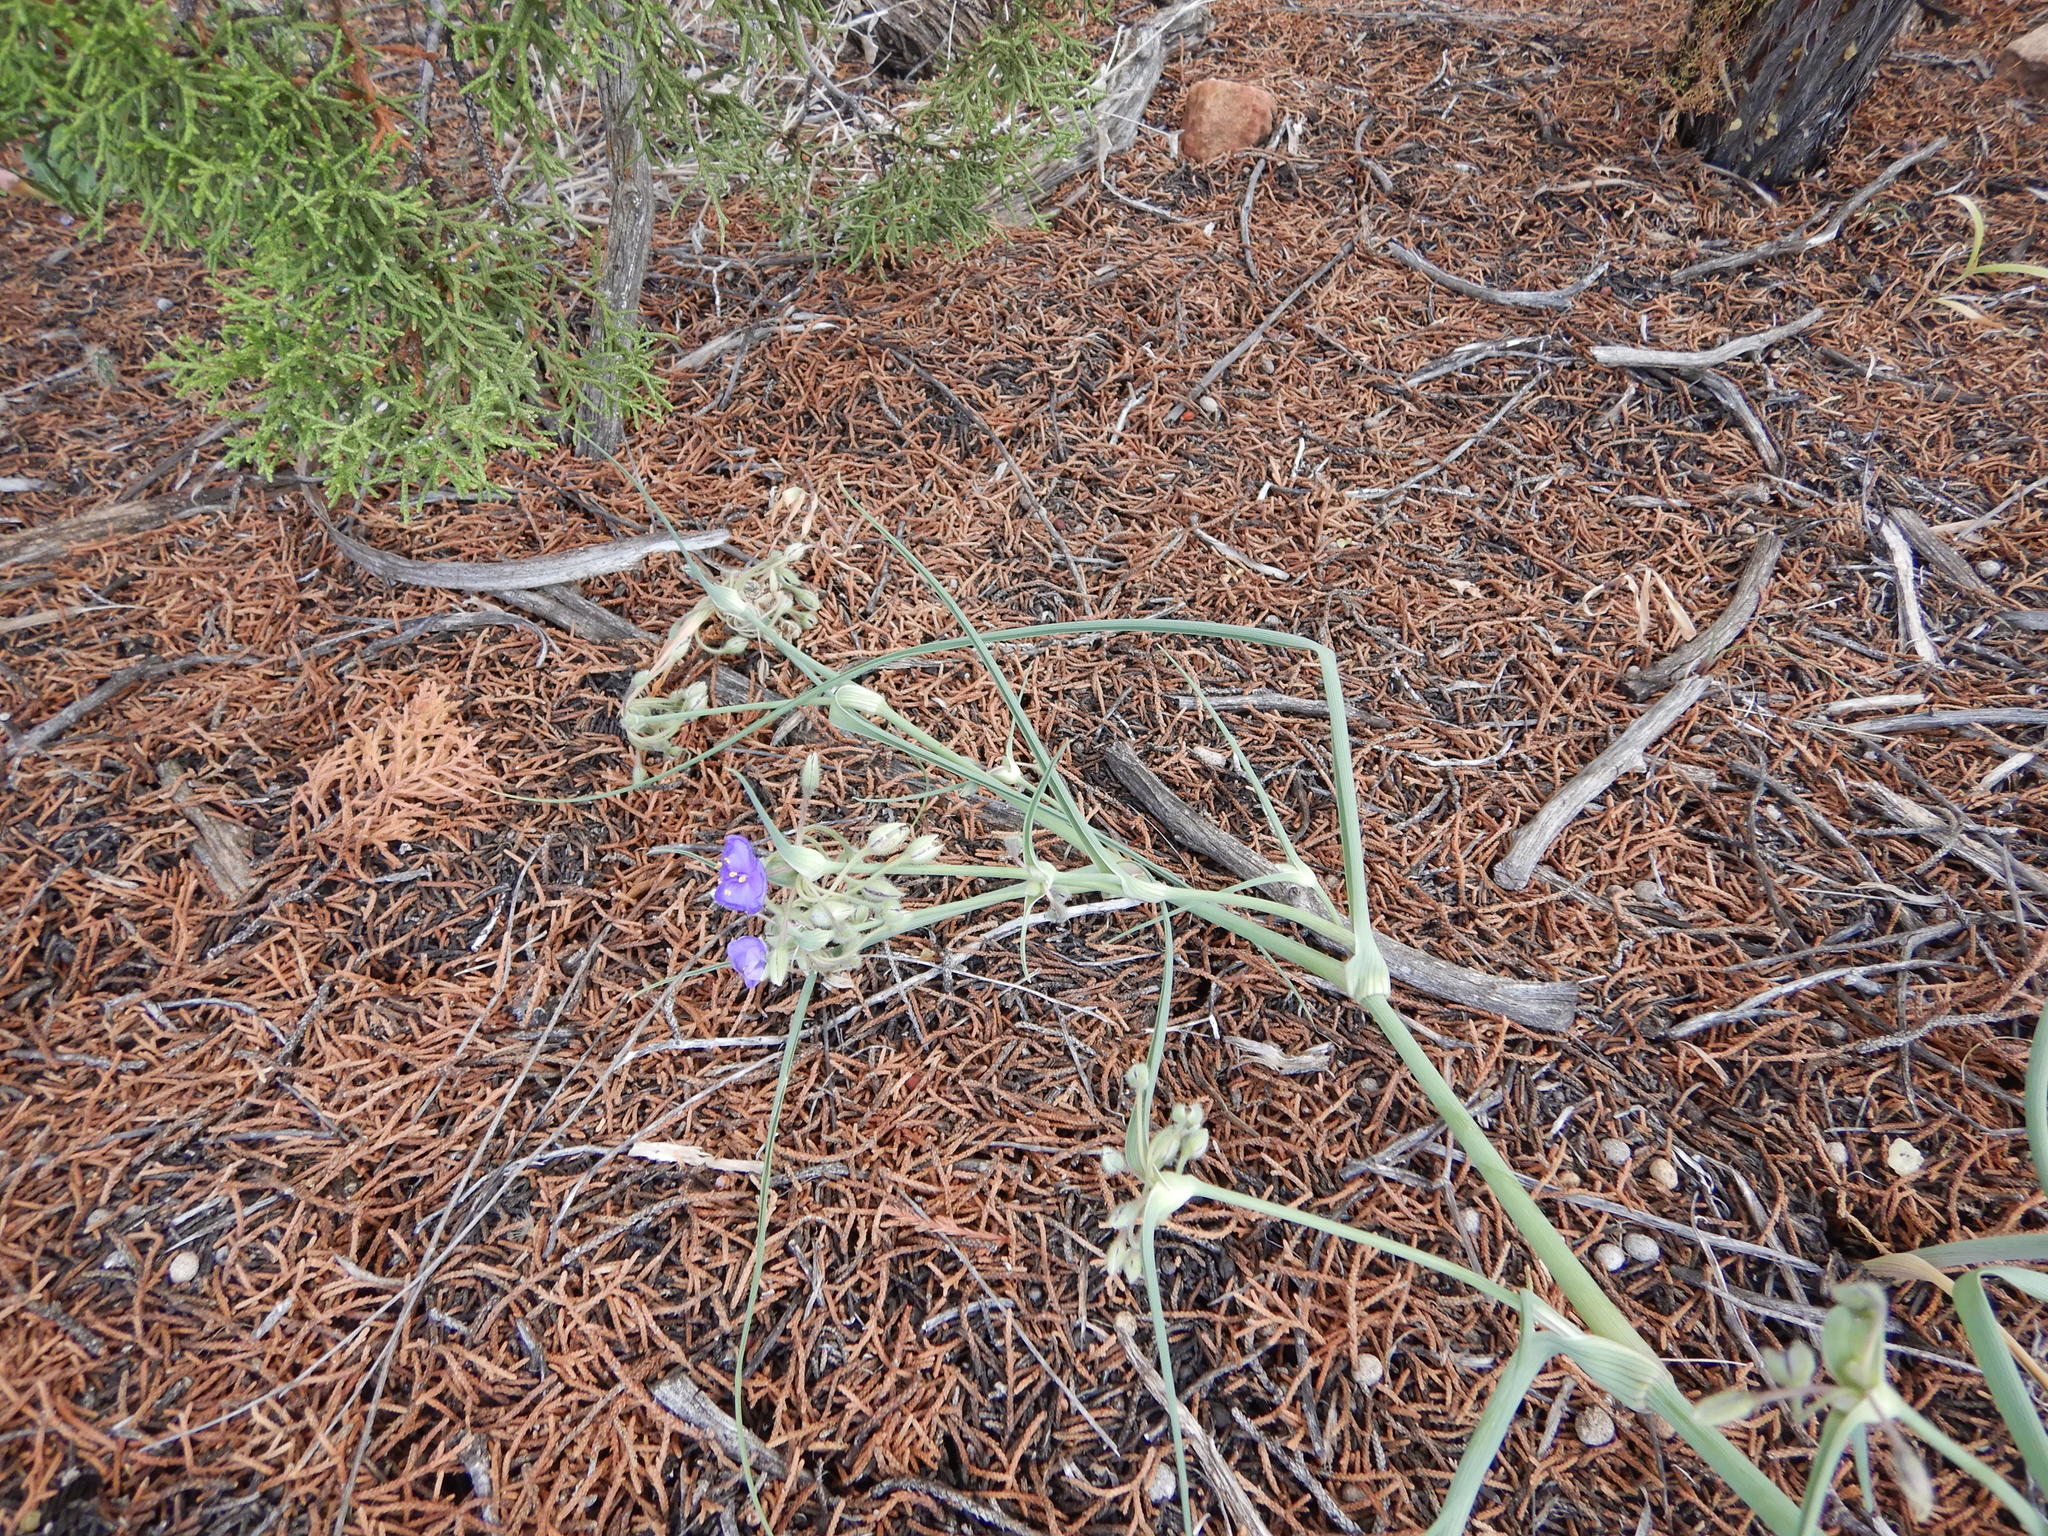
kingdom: Plantae
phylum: Tracheophyta
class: Liliopsida
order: Commelinales
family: Commelinaceae
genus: Tradescantia
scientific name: Tradescantia occidentalis
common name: Prairie spiderwort
